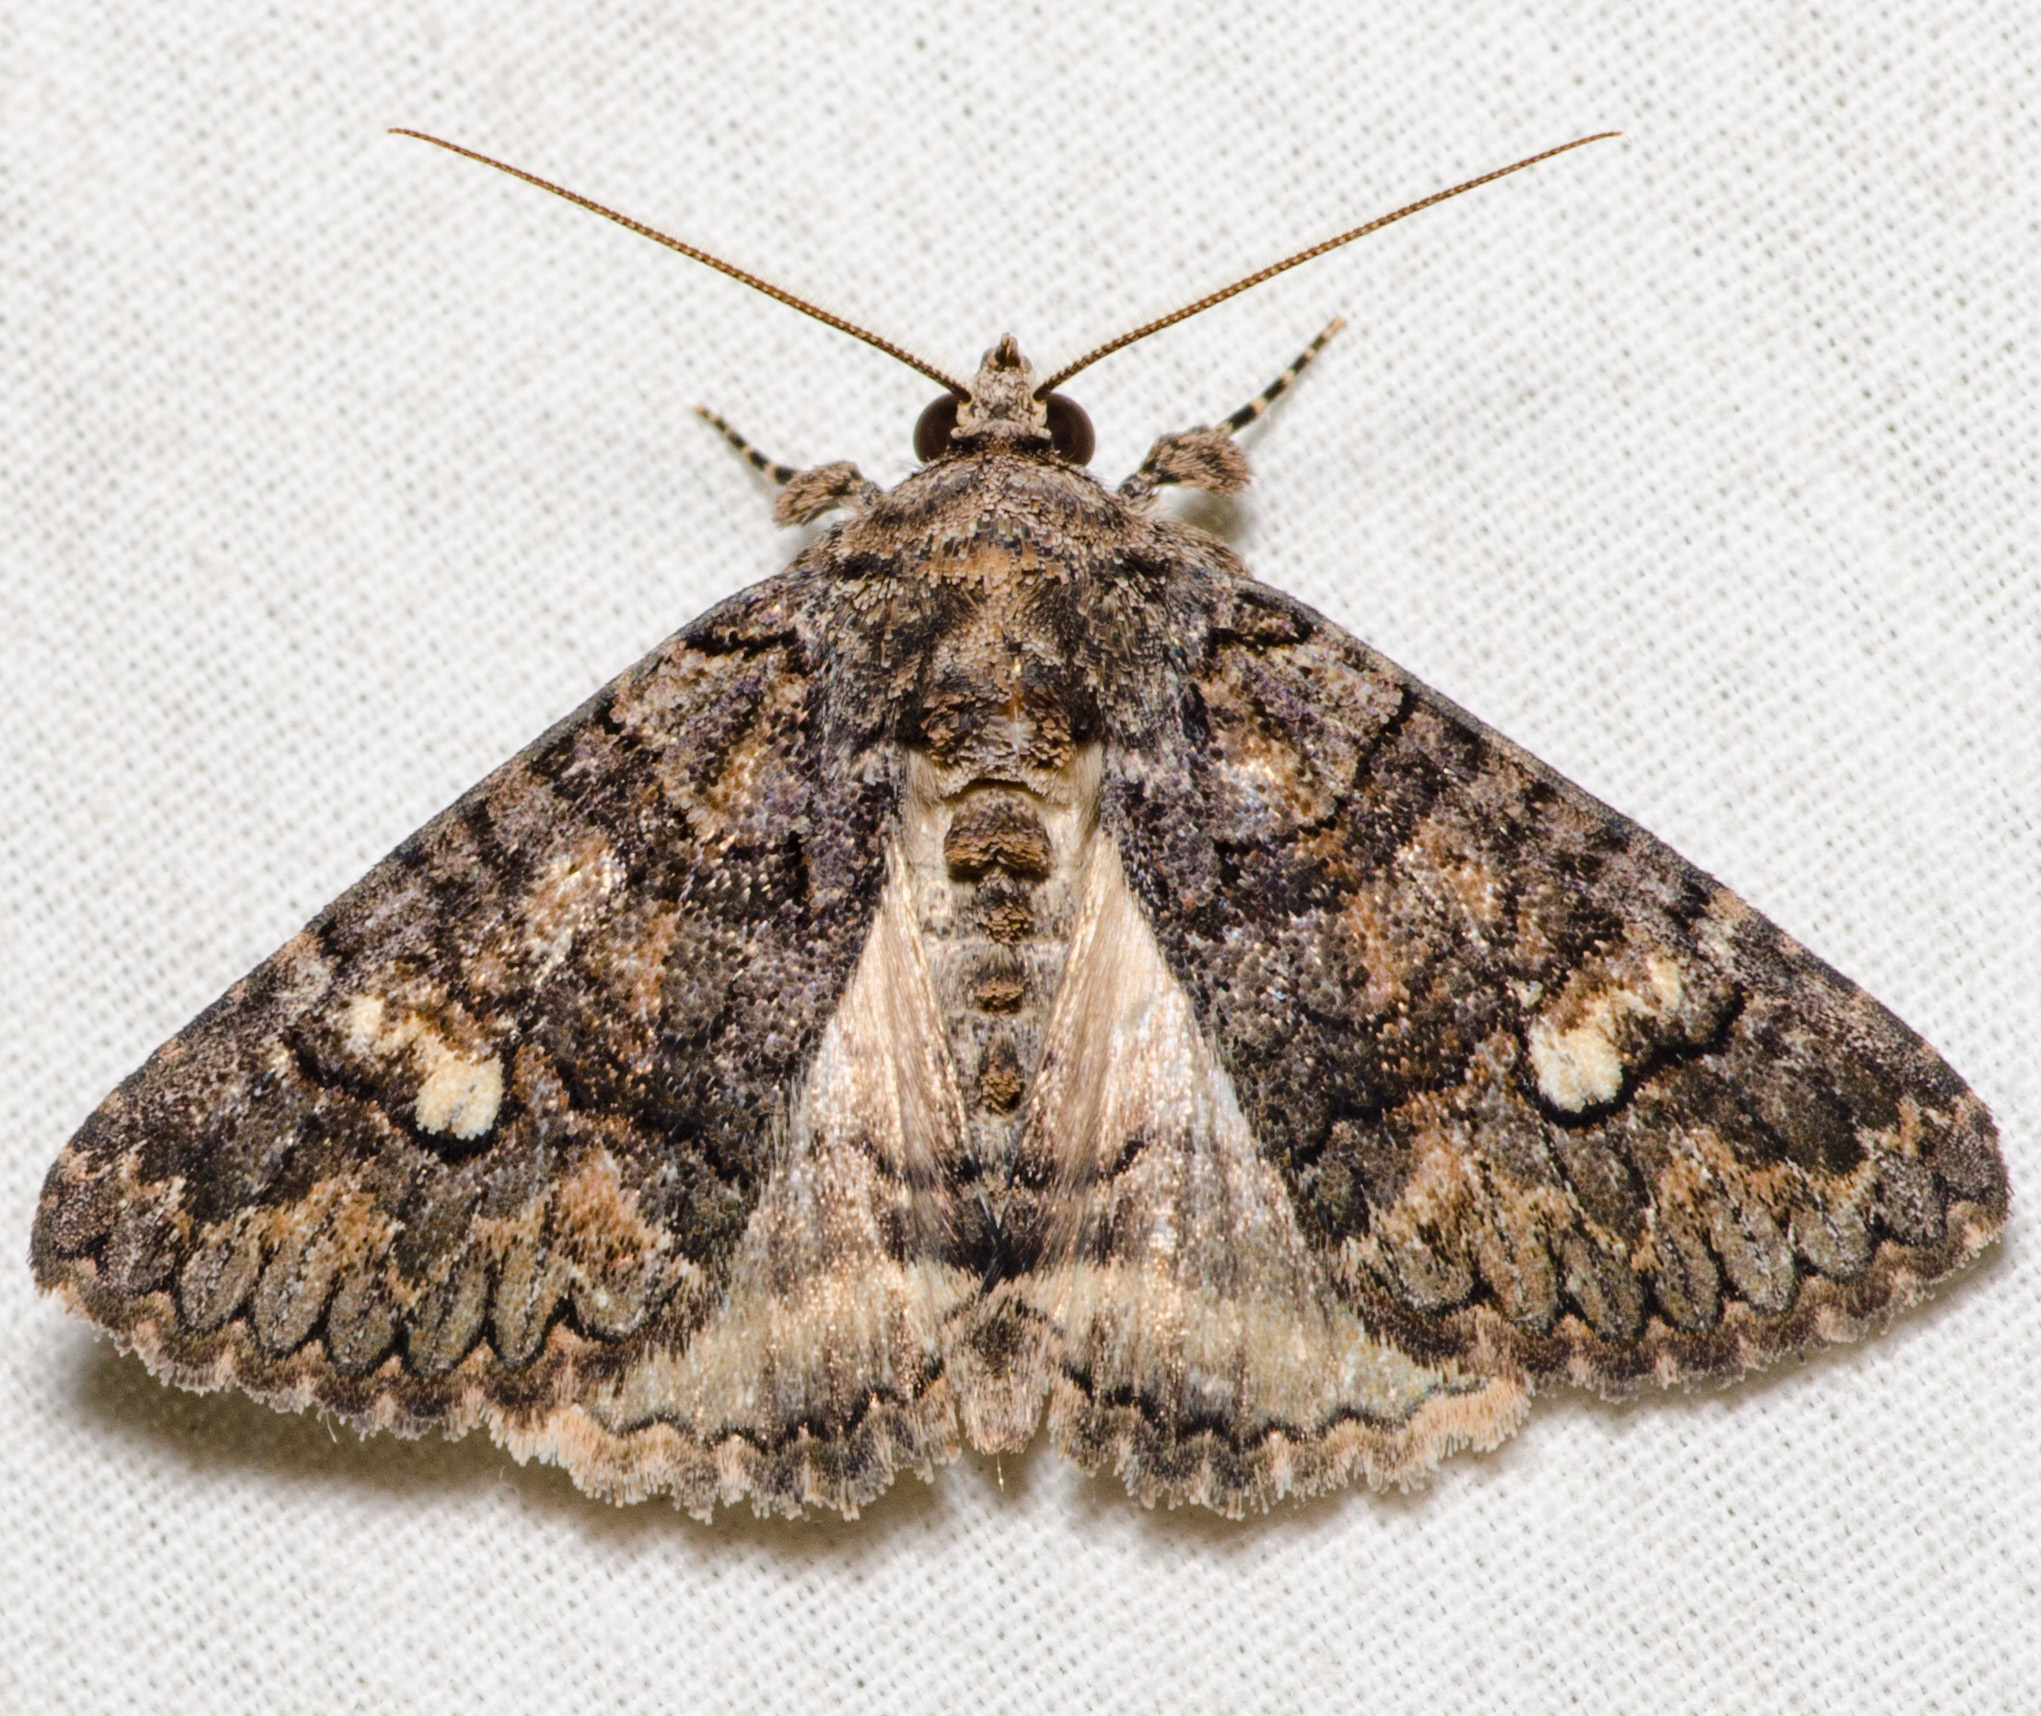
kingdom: Animalia
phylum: Arthropoda
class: Insecta
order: Lepidoptera
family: Erebidae
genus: Elousa
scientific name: Elousa mima
